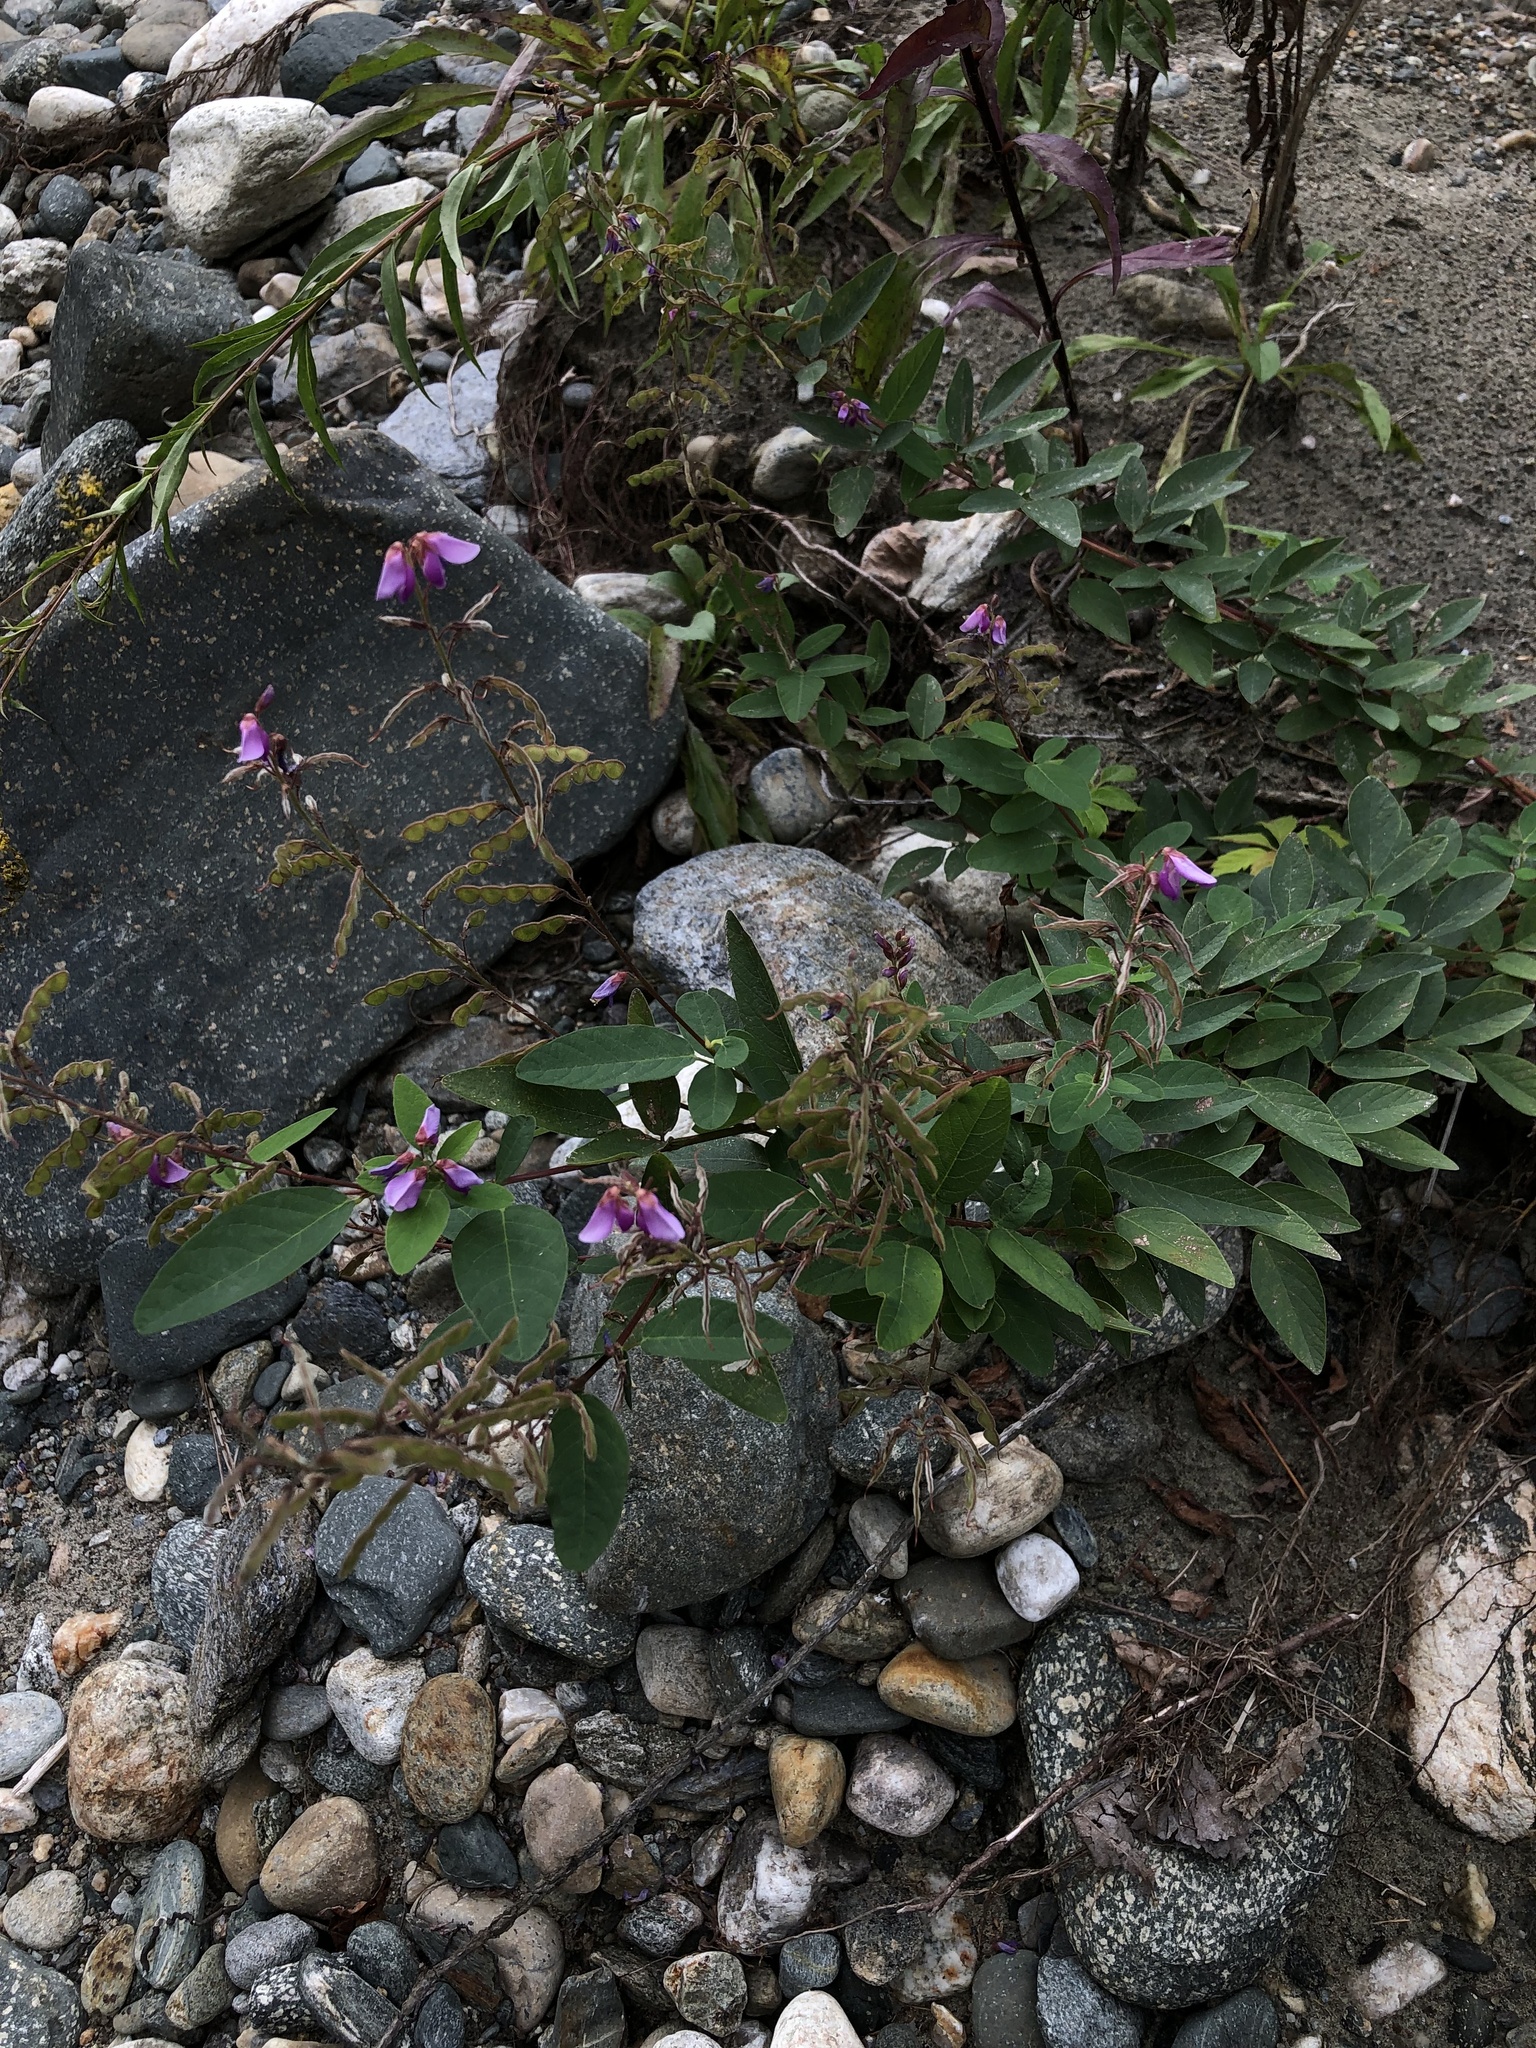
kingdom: Plantae
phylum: Tracheophyta
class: Magnoliopsida
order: Fabales
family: Fabaceae
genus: Desmodium
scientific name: Desmodium canadense
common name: Canada tick-trefoil
